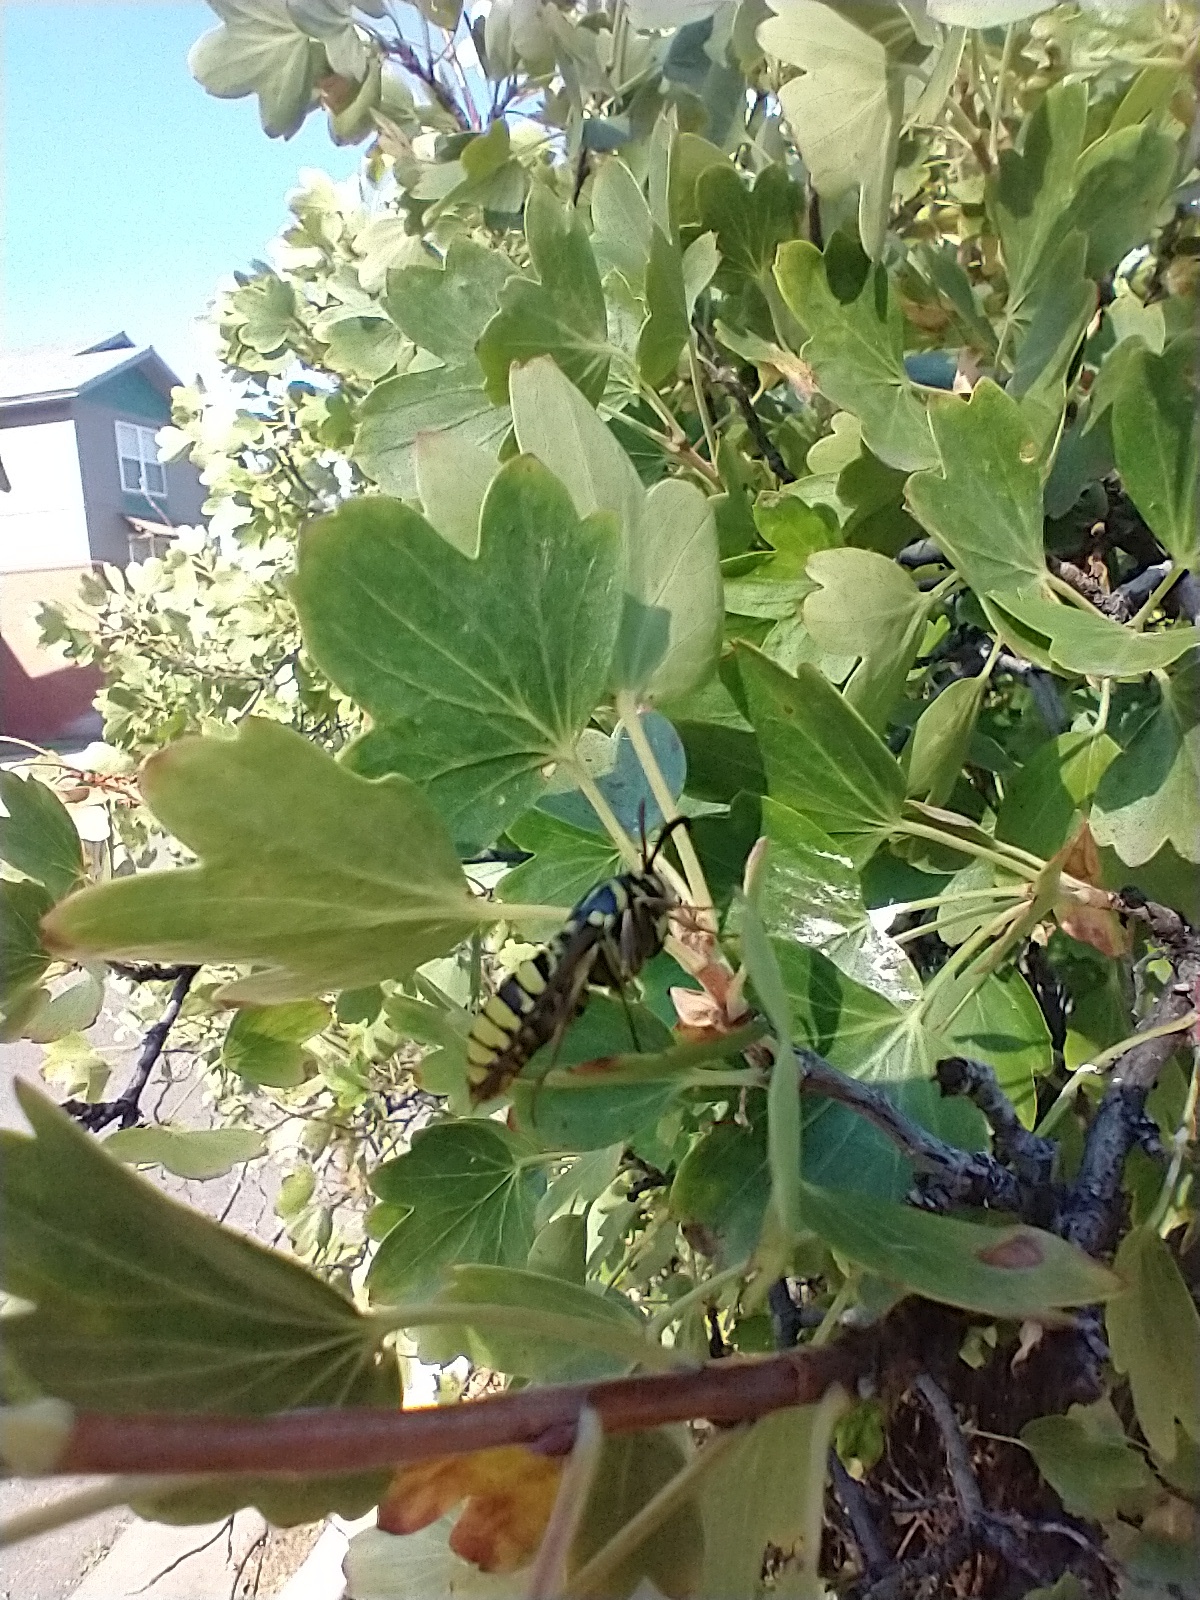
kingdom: Animalia
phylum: Arthropoda
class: Insecta
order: Lepidoptera
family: Sesiidae
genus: Sesia
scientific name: Sesia tibiale
